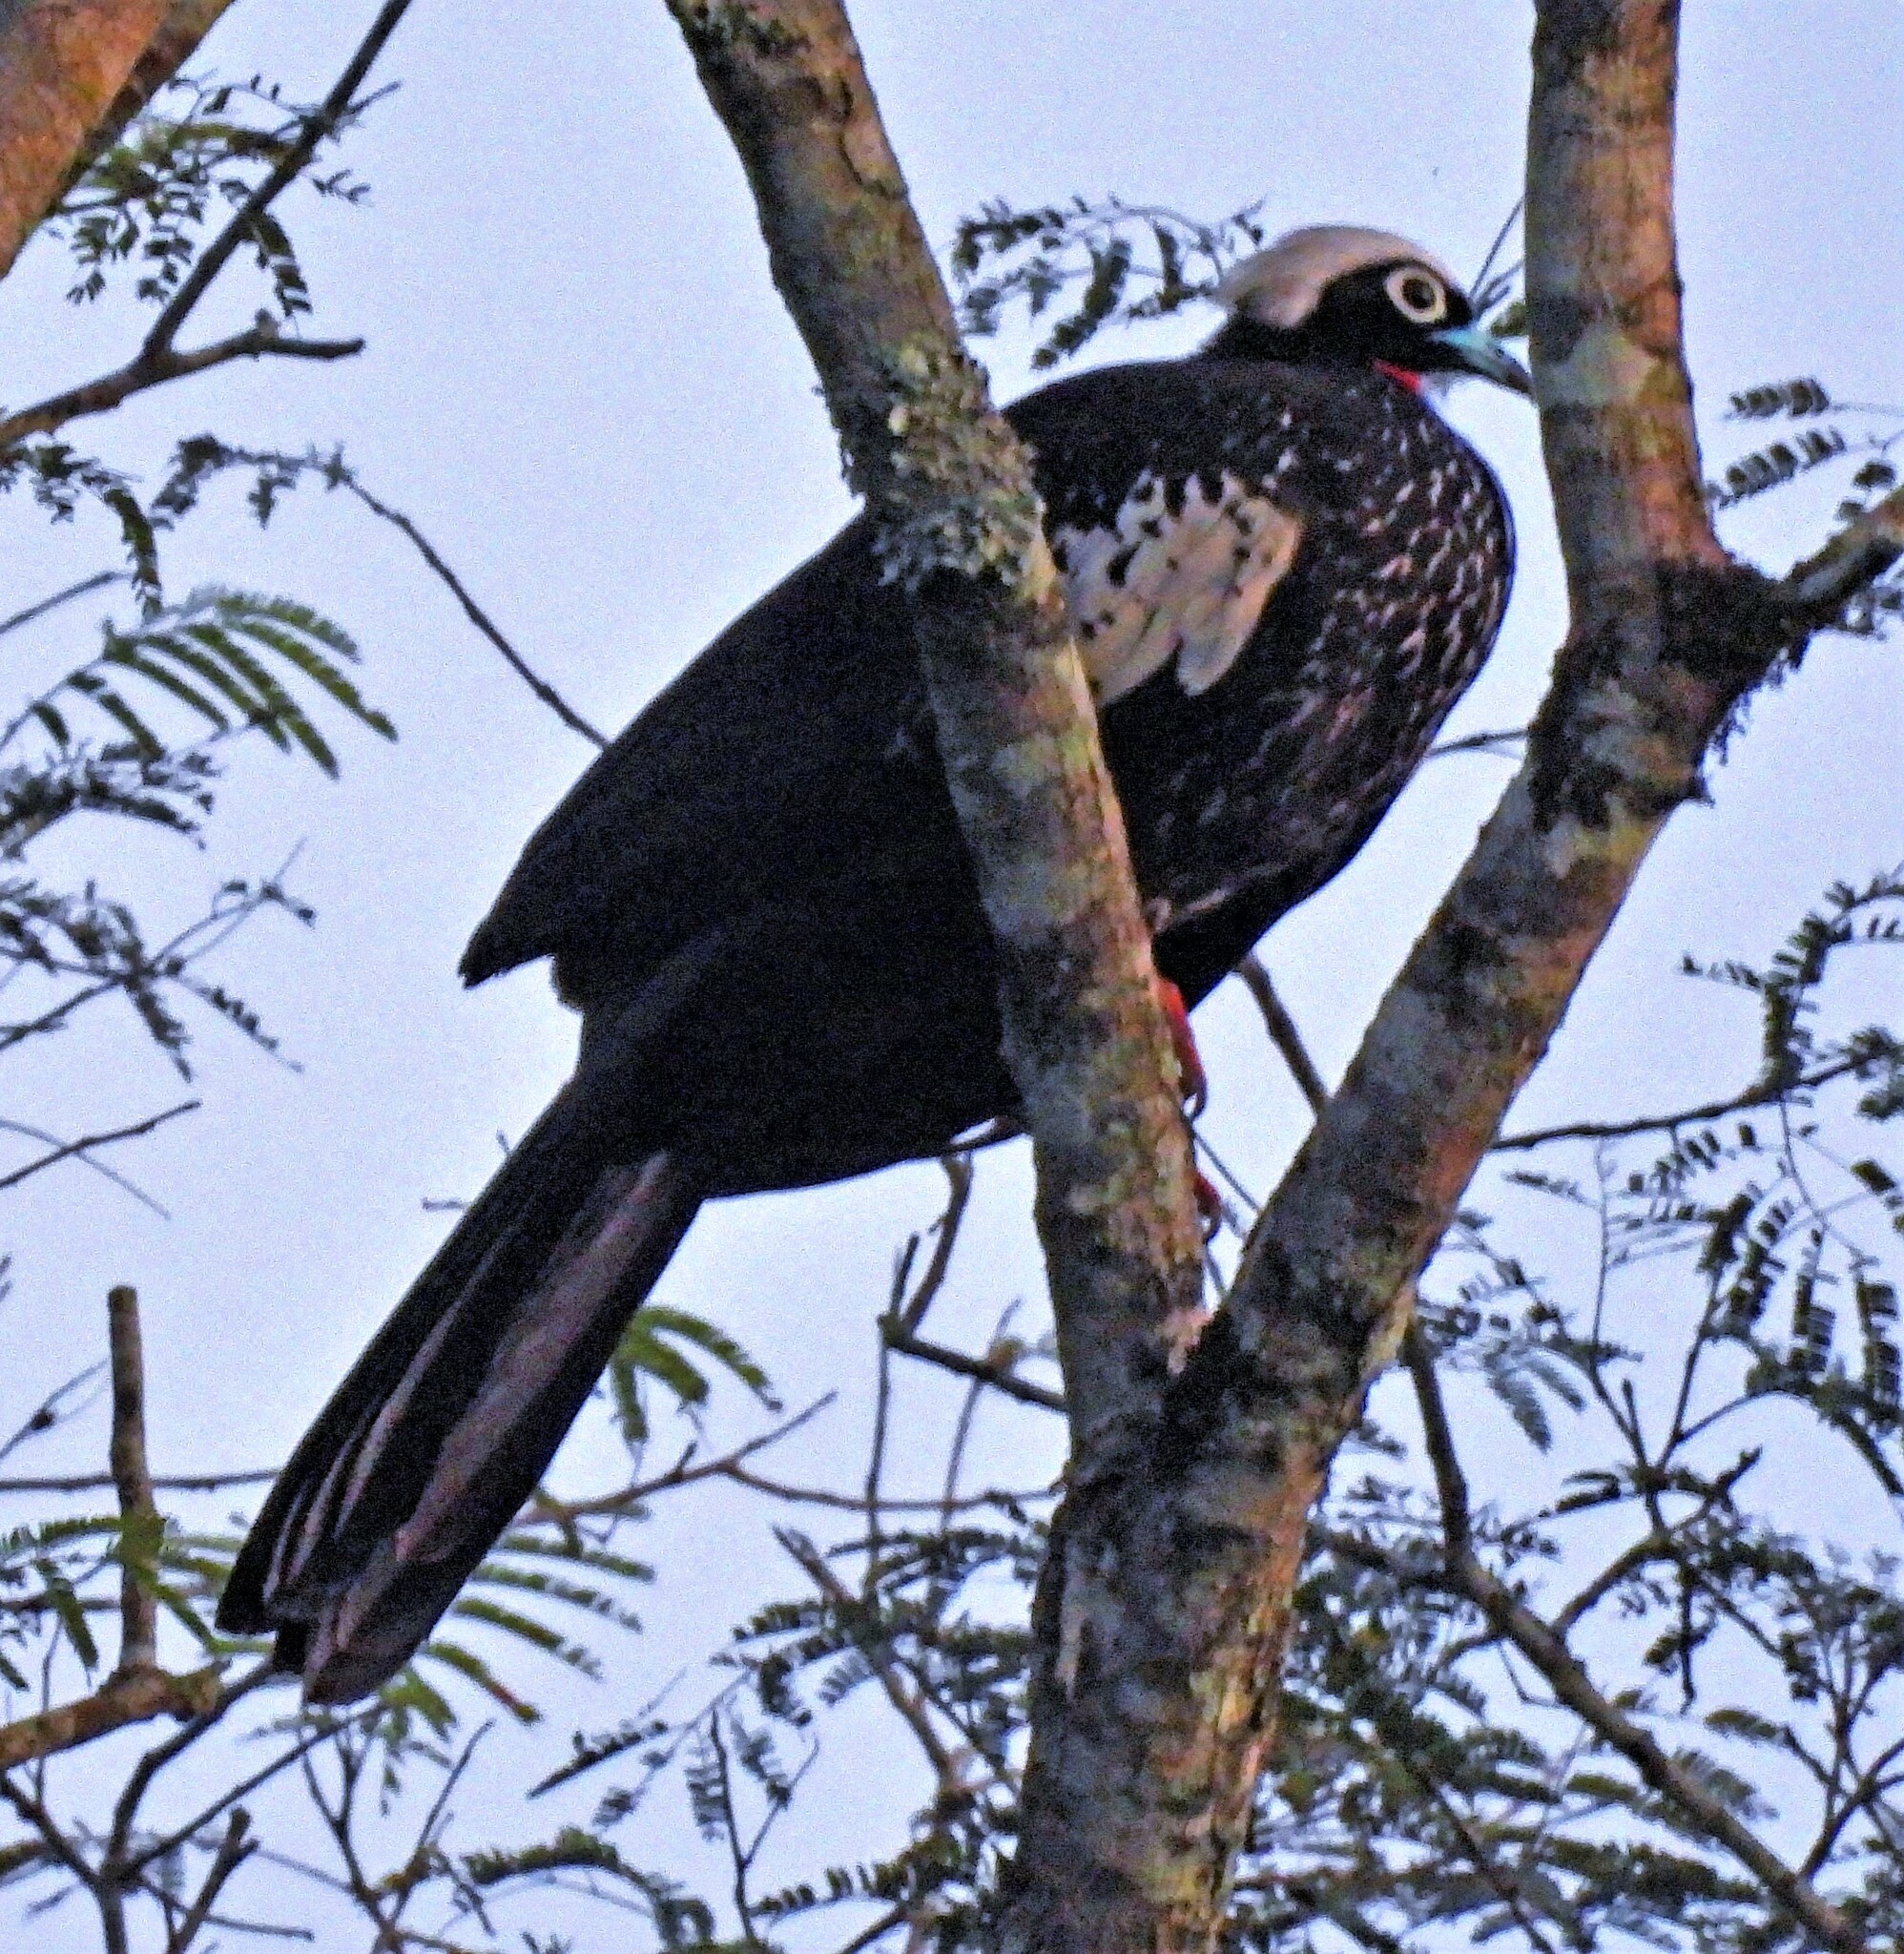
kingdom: Animalia
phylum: Chordata
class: Aves
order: Galliformes
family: Cracidae
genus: Pipile
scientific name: Pipile jacutinga
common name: Black-fronted piping-guan
